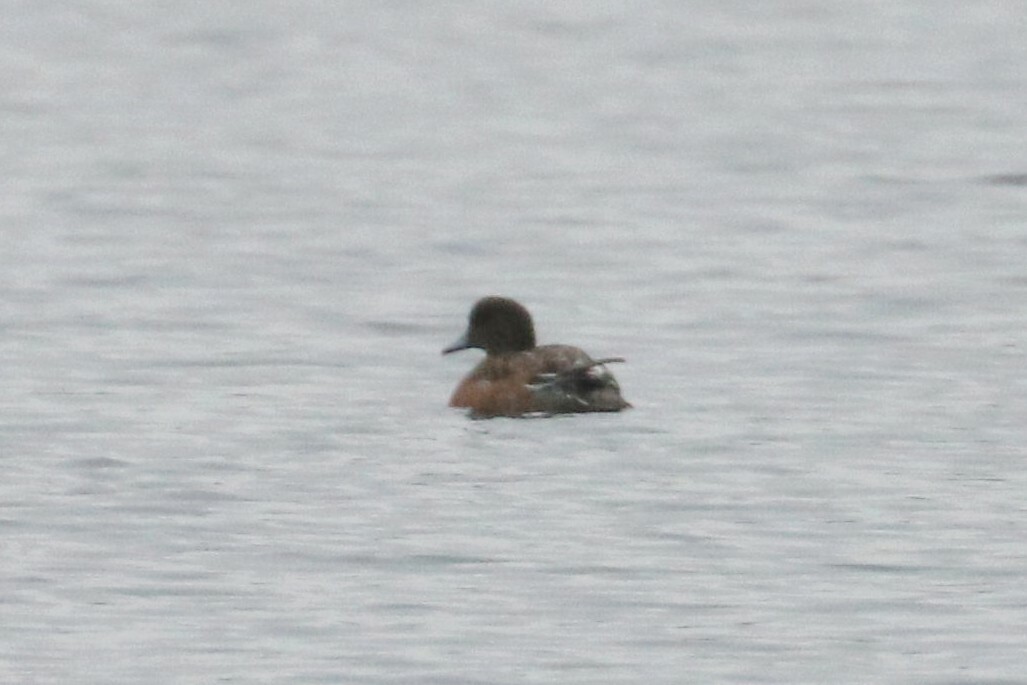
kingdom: Animalia
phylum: Chordata
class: Aves
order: Anseriformes
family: Anatidae
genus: Mareca
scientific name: Mareca penelope
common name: Eurasian wigeon
